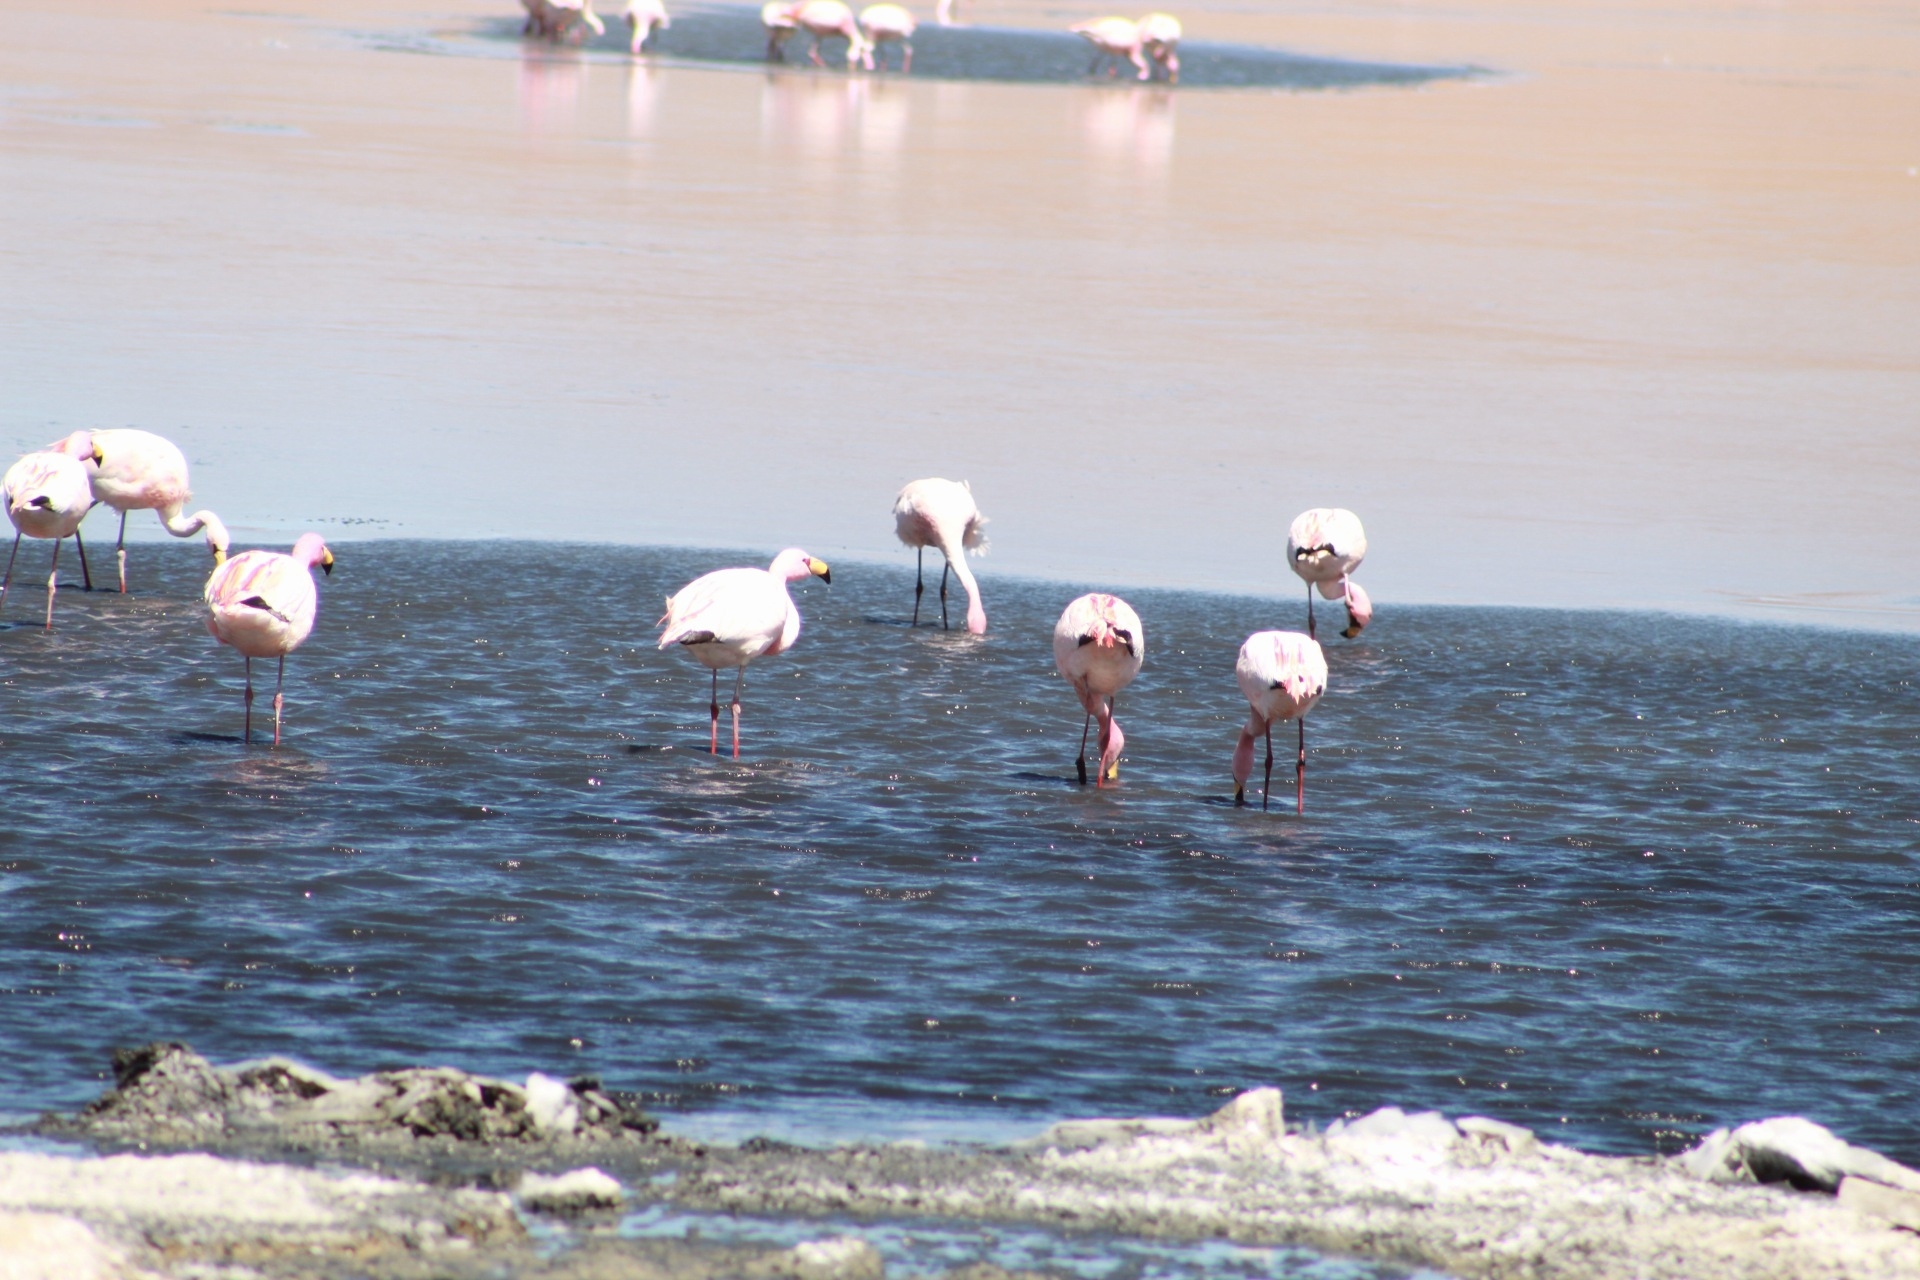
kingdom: Animalia
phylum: Chordata
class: Aves
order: Phoenicopteriformes
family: Phoenicopteridae
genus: Phoenicoparrus
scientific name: Phoenicoparrus jamesi
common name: James's flamingo
